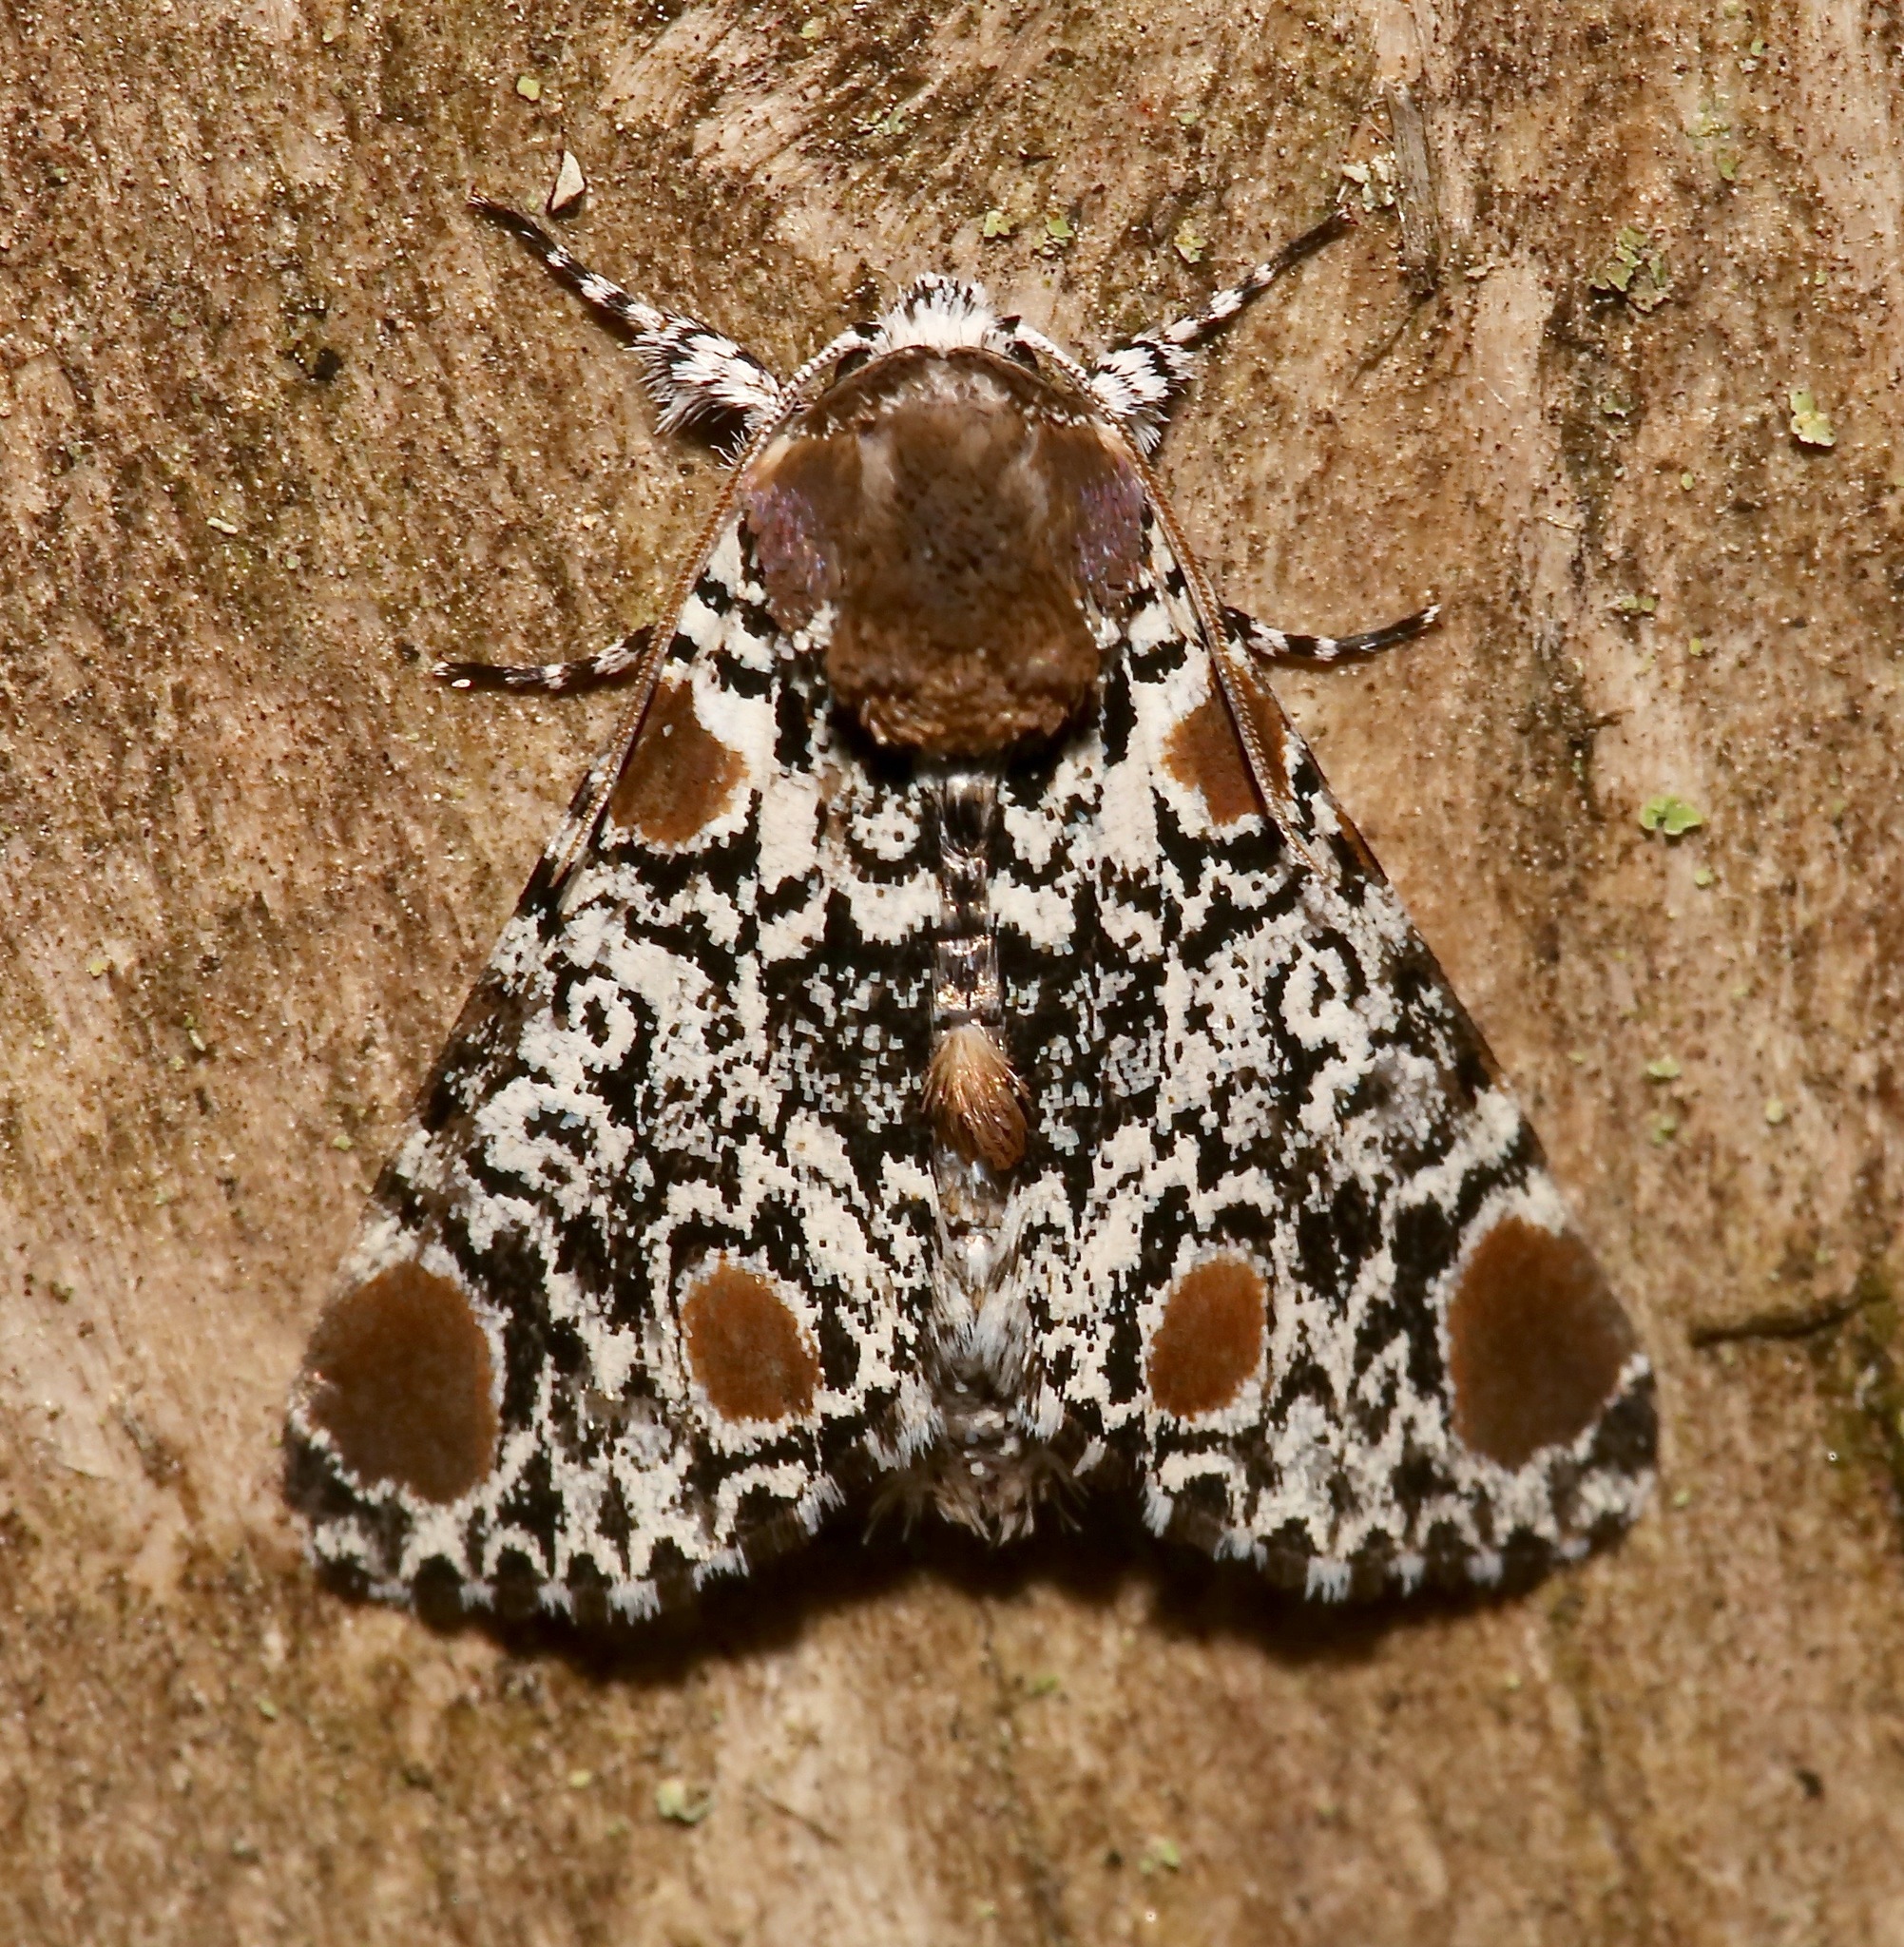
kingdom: Animalia
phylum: Arthropoda
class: Insecta
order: Lepidoptera
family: Noctuidae
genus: Harrisimemna
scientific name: Harrisimemna trisignata
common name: Harris threespot
